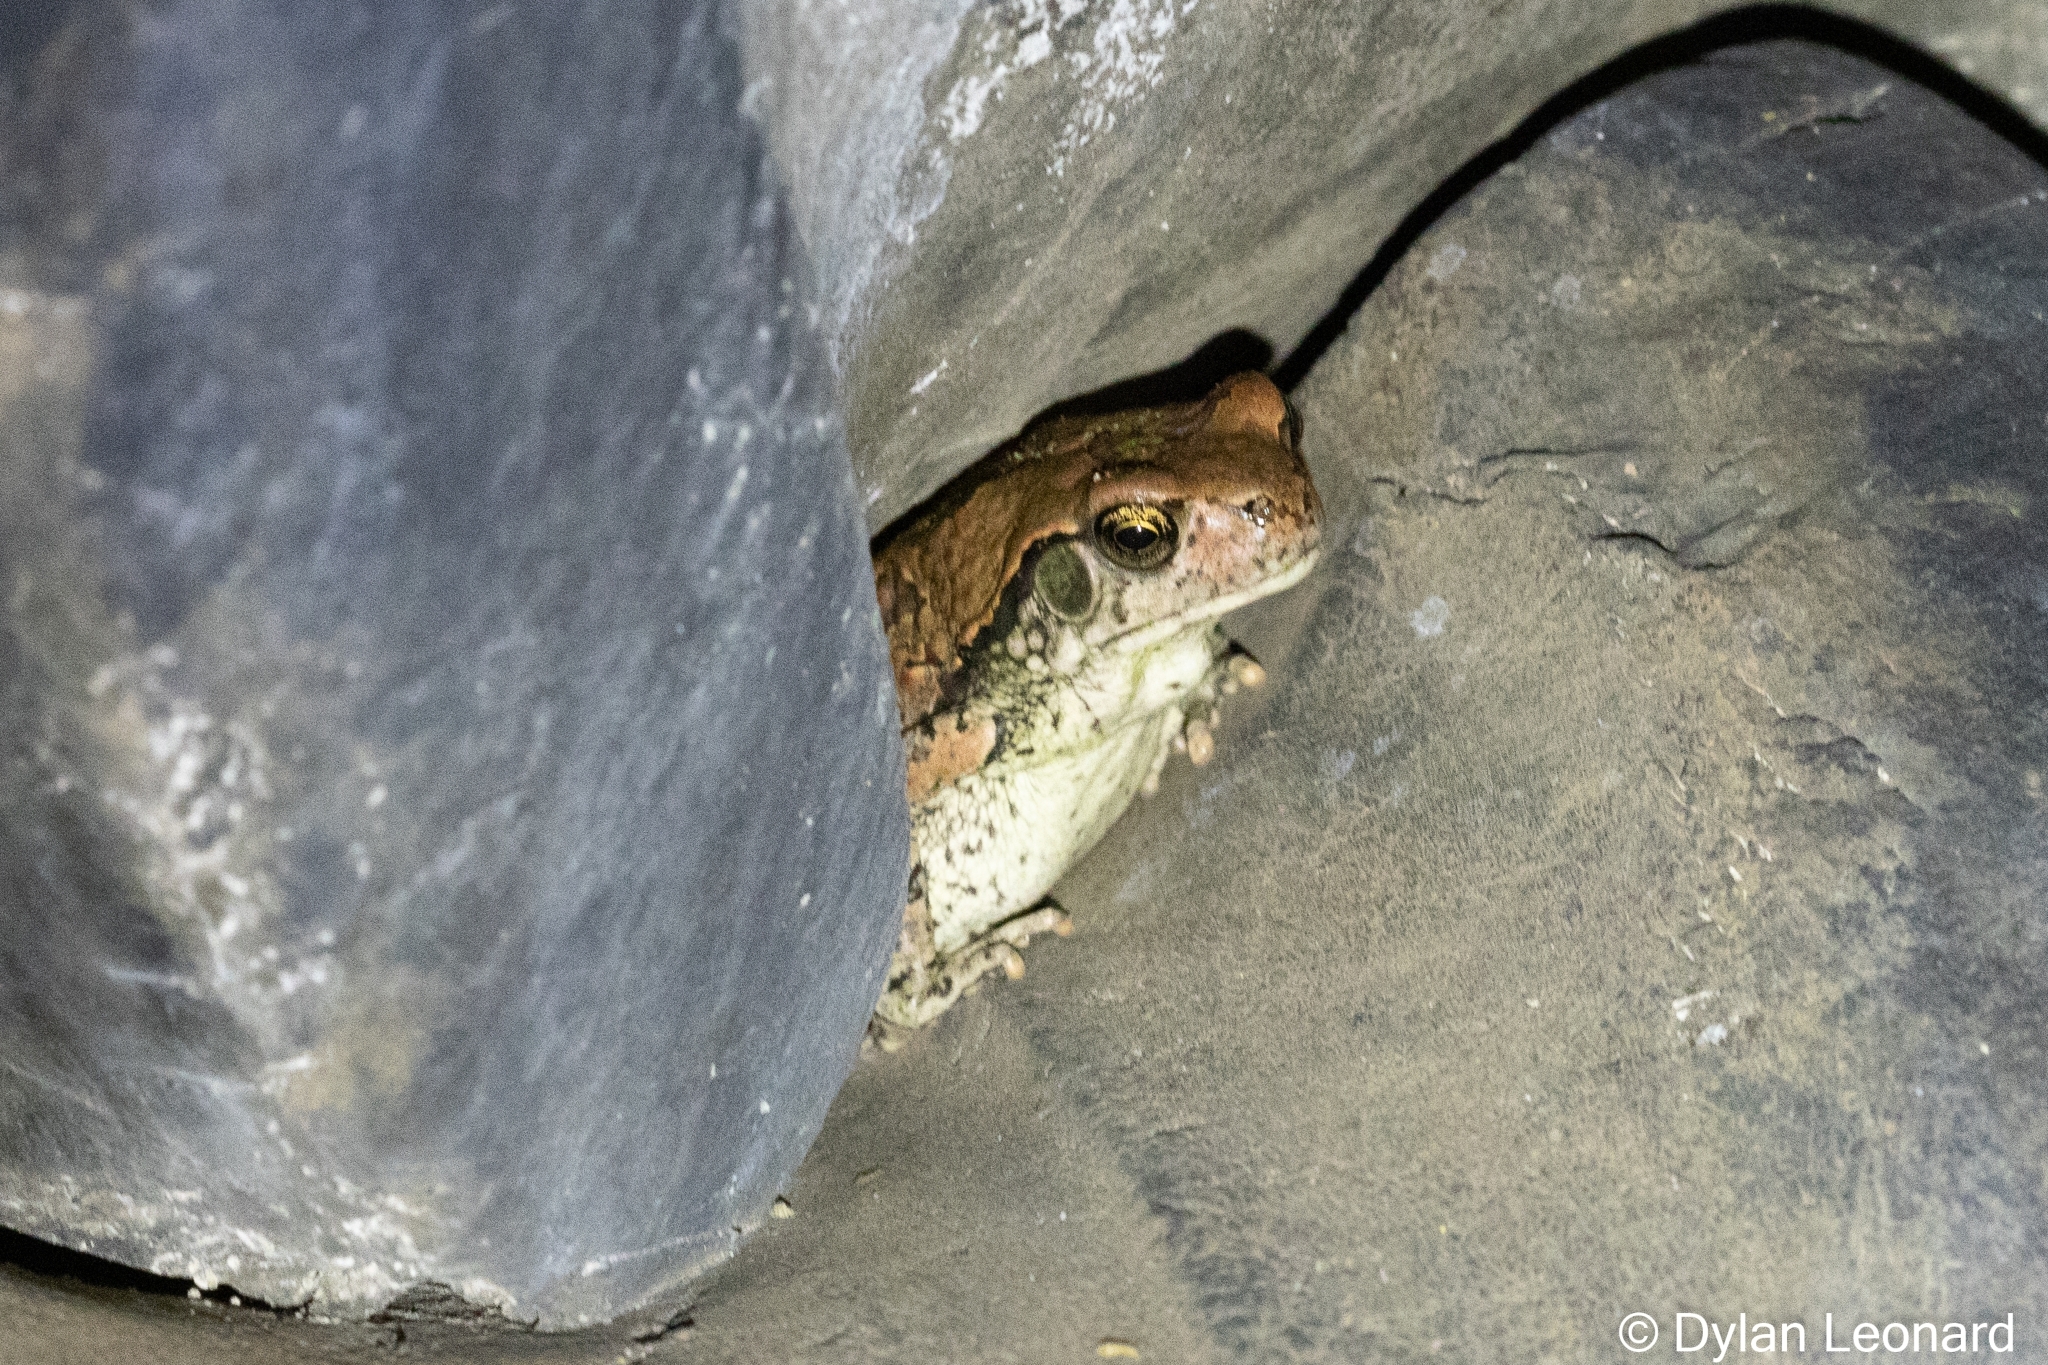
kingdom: Animalia
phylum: Chordata
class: Amphibia
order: Anura
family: Bufonidae
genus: Schismaderma
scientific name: Schismaderma carens
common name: African split-skin toad
